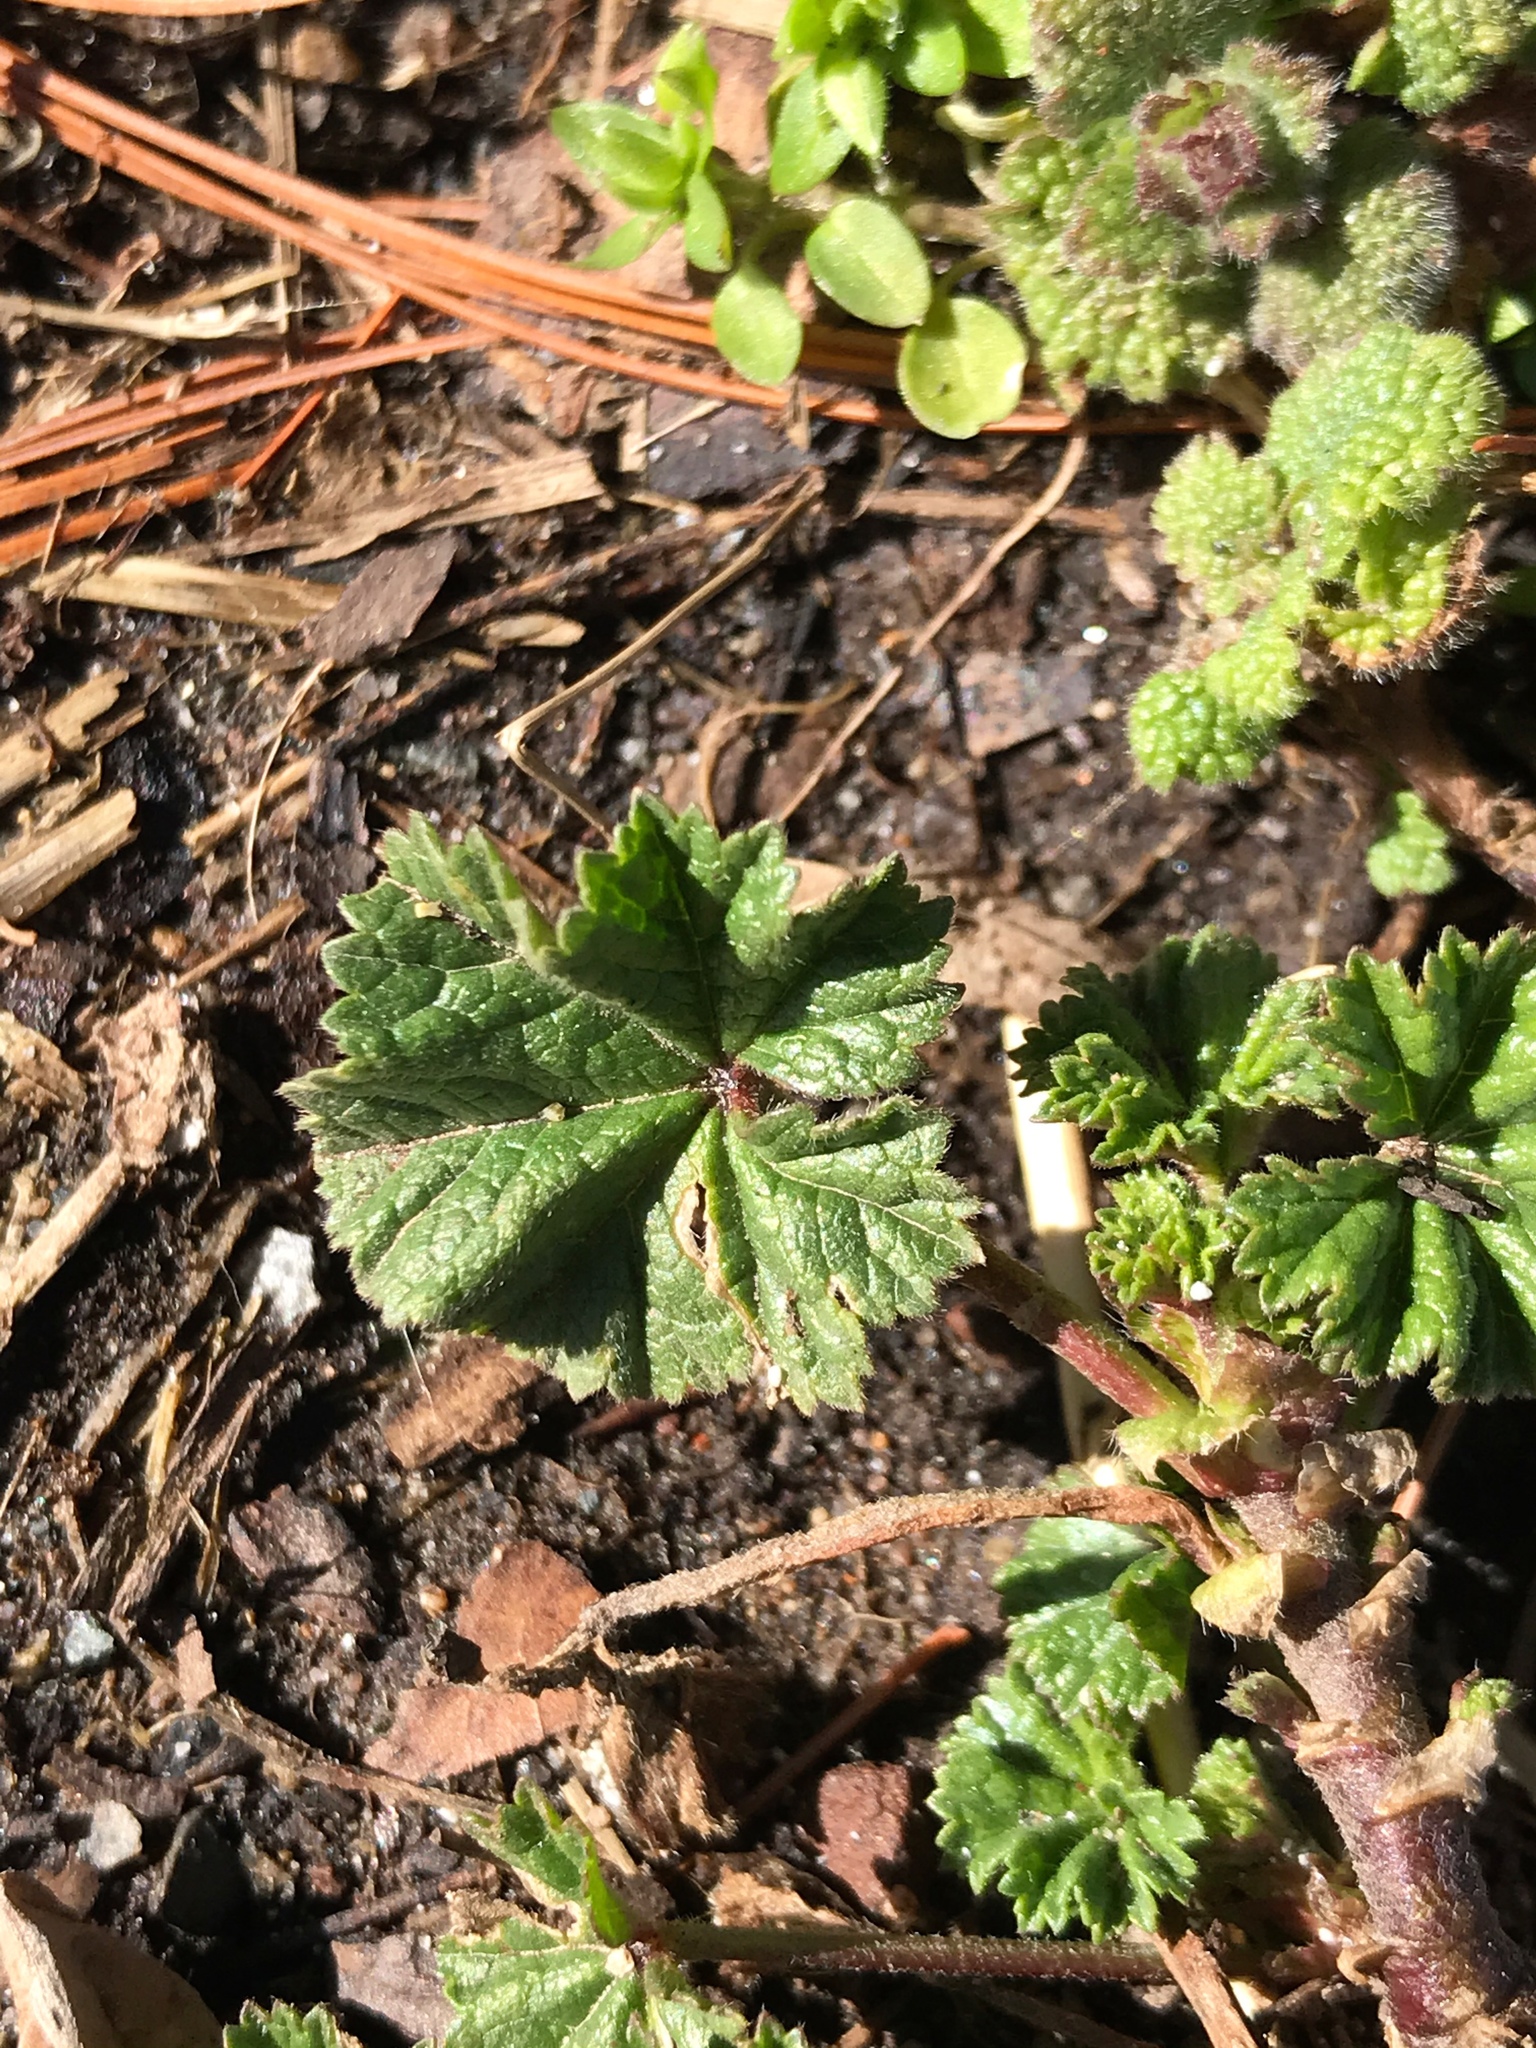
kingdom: Plantae
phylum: Tracheophyta
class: Magnoliopsida
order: Malvales
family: Malvaceae
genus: Malva
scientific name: Malva neglecta
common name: Common mallow
